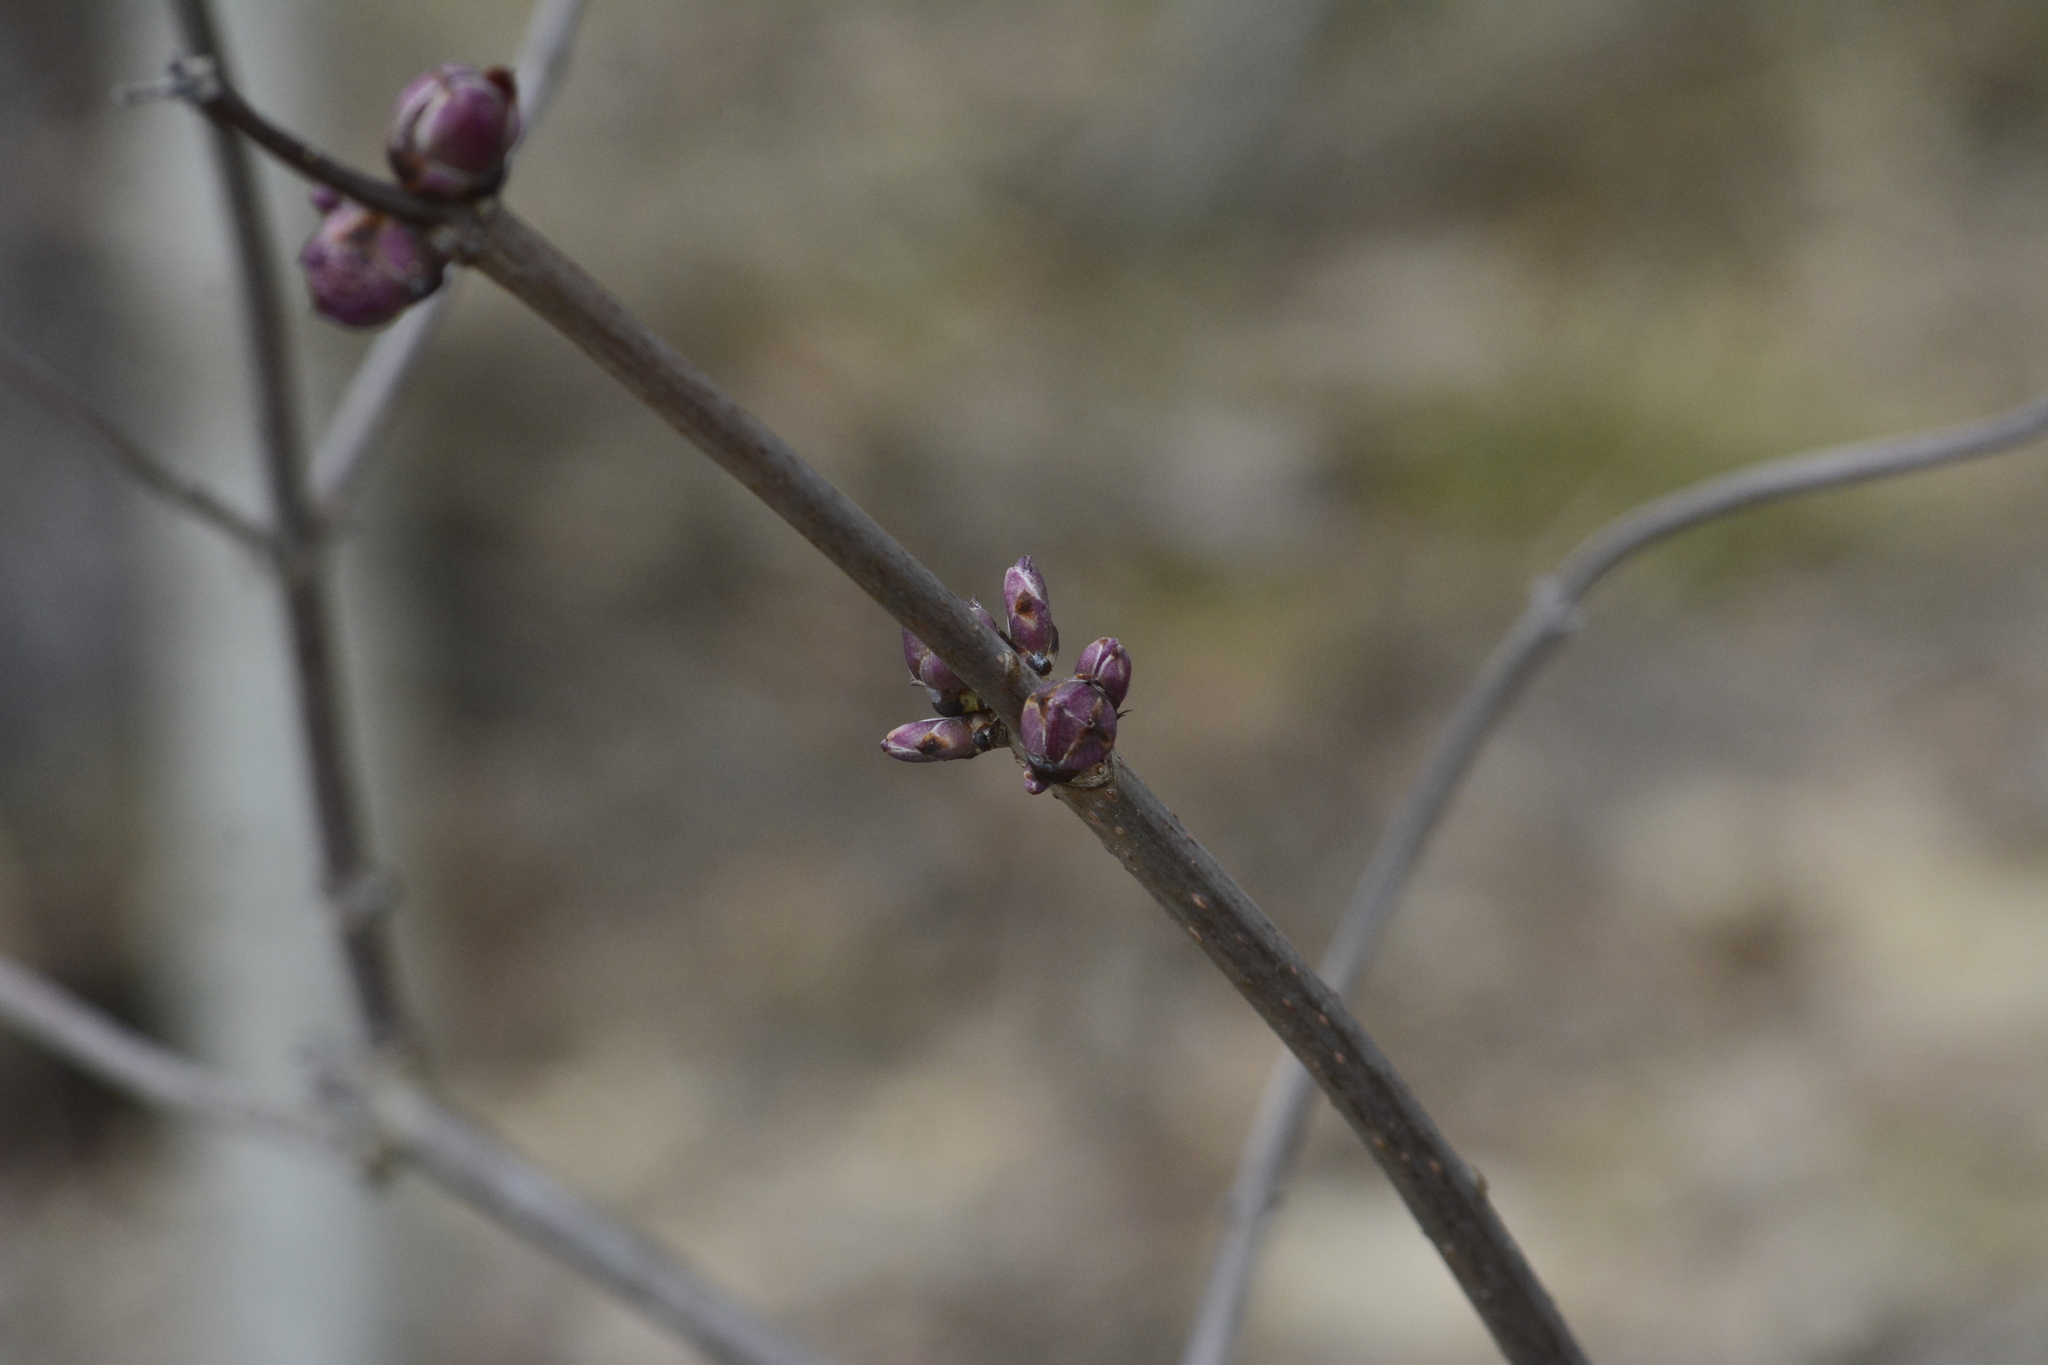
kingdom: Plantae
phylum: Tracheophyta
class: Magnoliopsida
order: Dipsacales
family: Viburnaceae
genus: Sambucus
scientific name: Sambucus racemosa
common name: Red-berried elder
